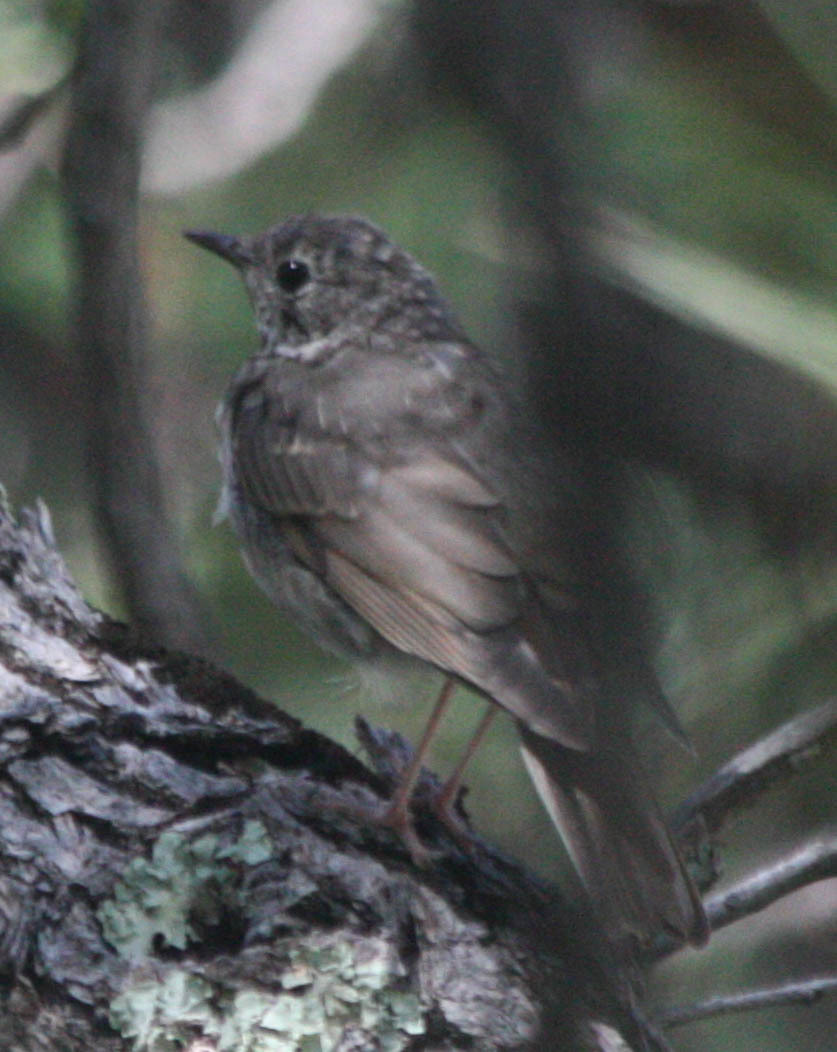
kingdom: Animalia
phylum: Chordata
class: Aves
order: Passeriformes
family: Turdidae
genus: Catharus
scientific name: Catharus guttatus
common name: Hermit thrush
